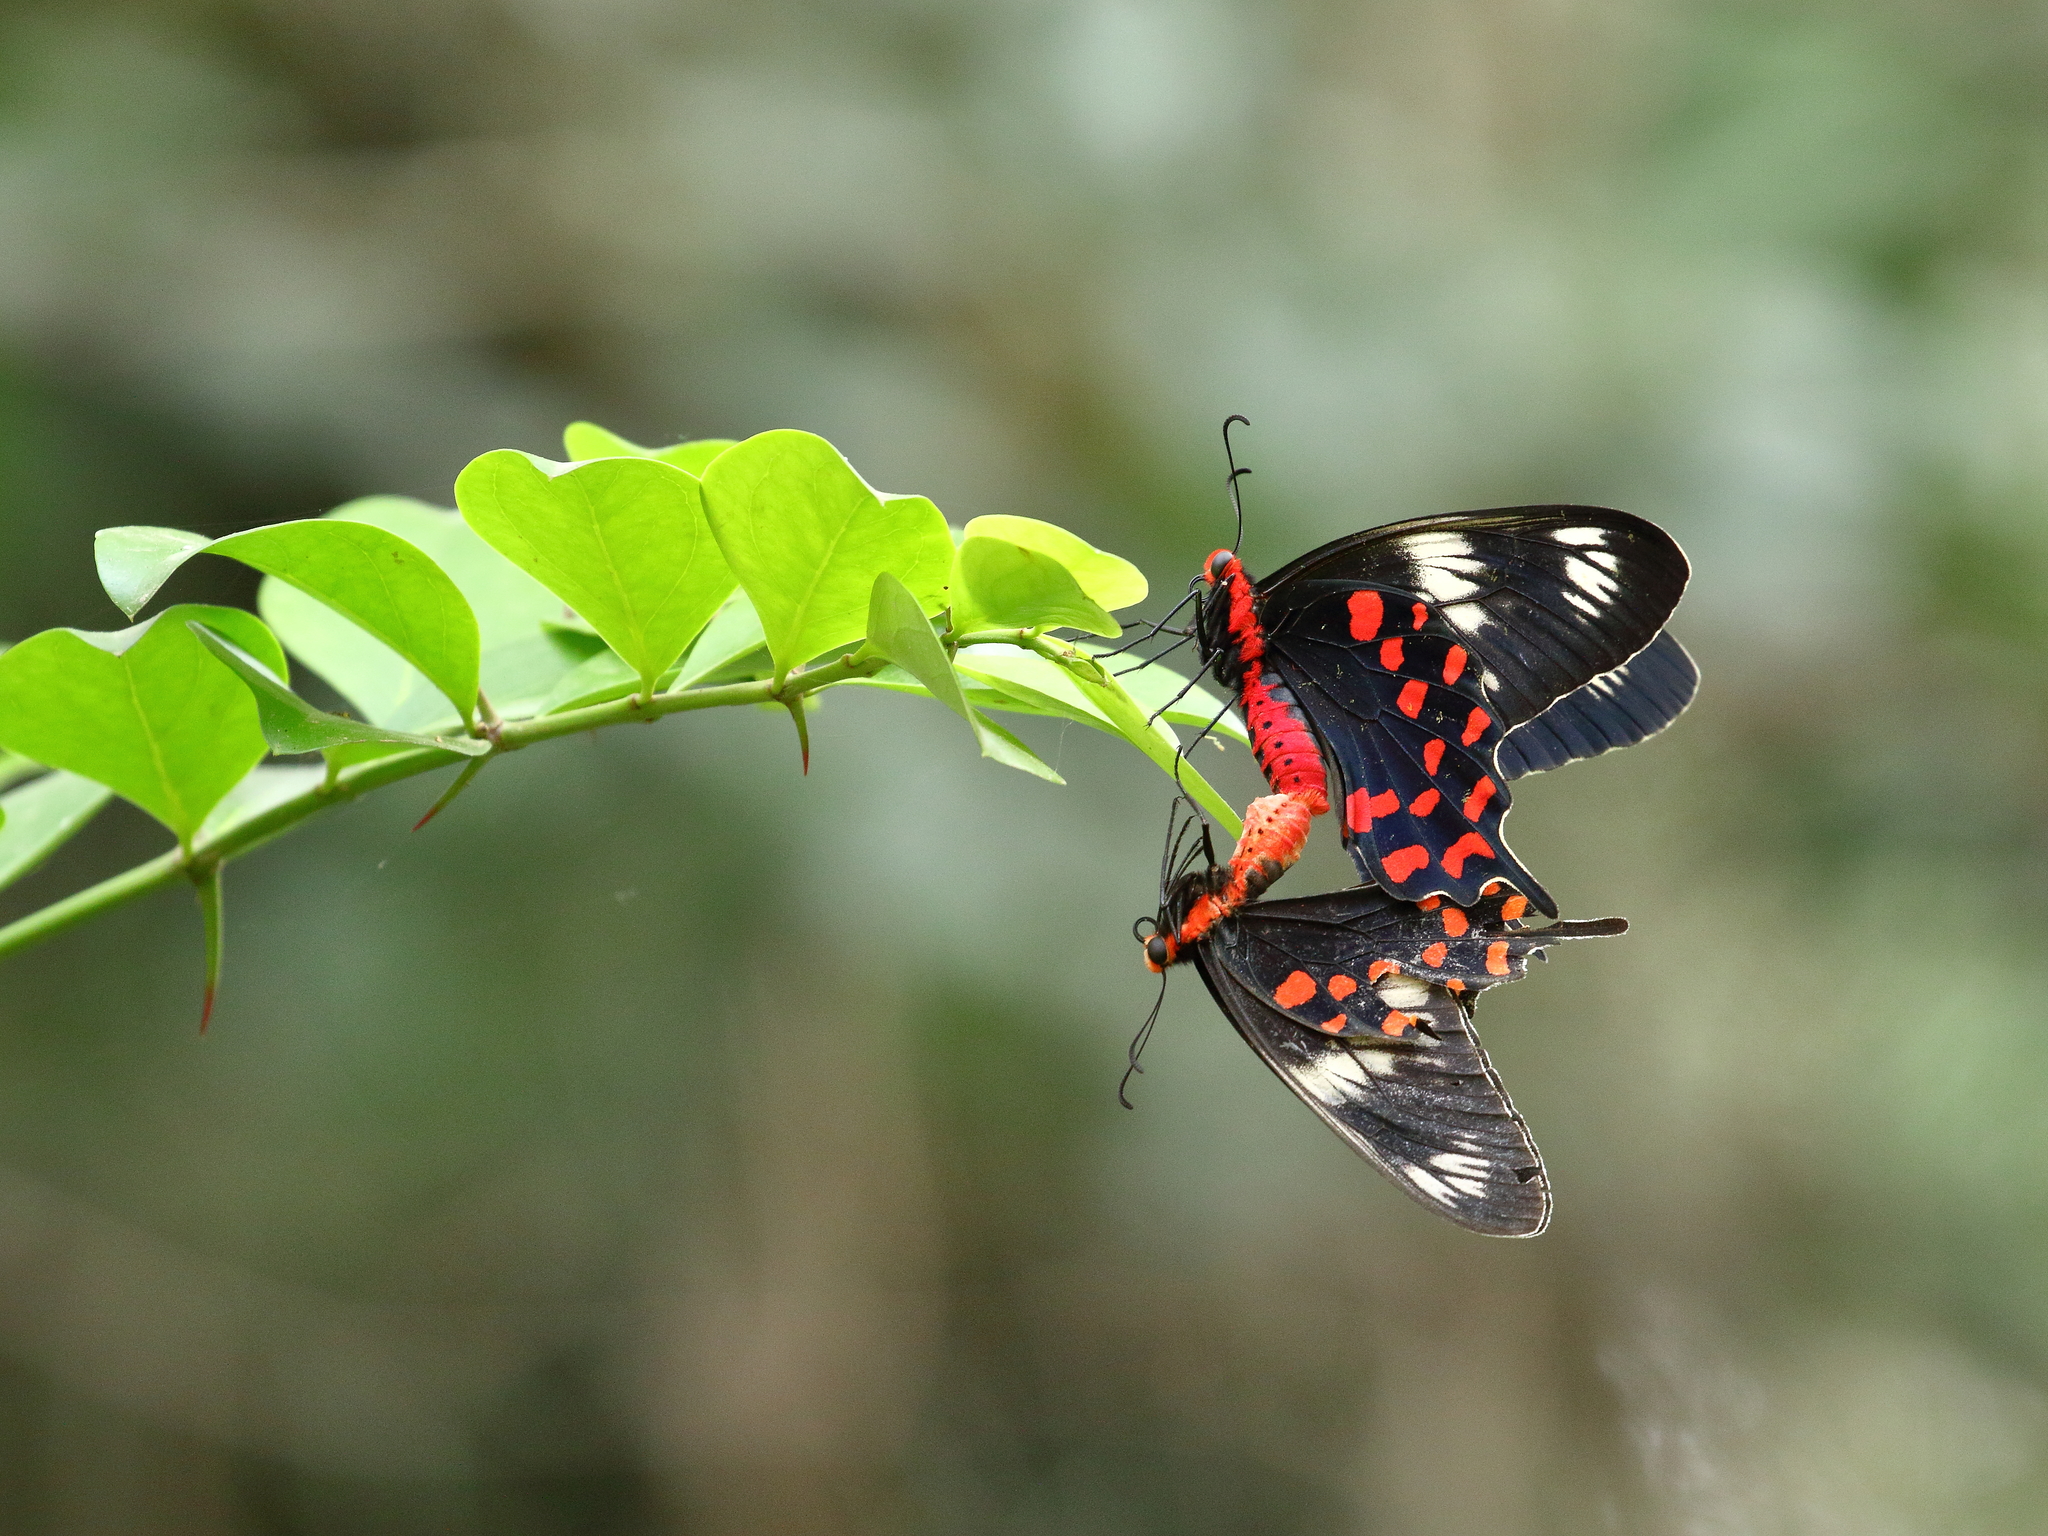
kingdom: Animalia
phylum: Arthropoda
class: Insecta
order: Lepidoptera
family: Papilionidae
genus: Pachliopta
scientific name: Pachliopta hector
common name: Crimson rose
